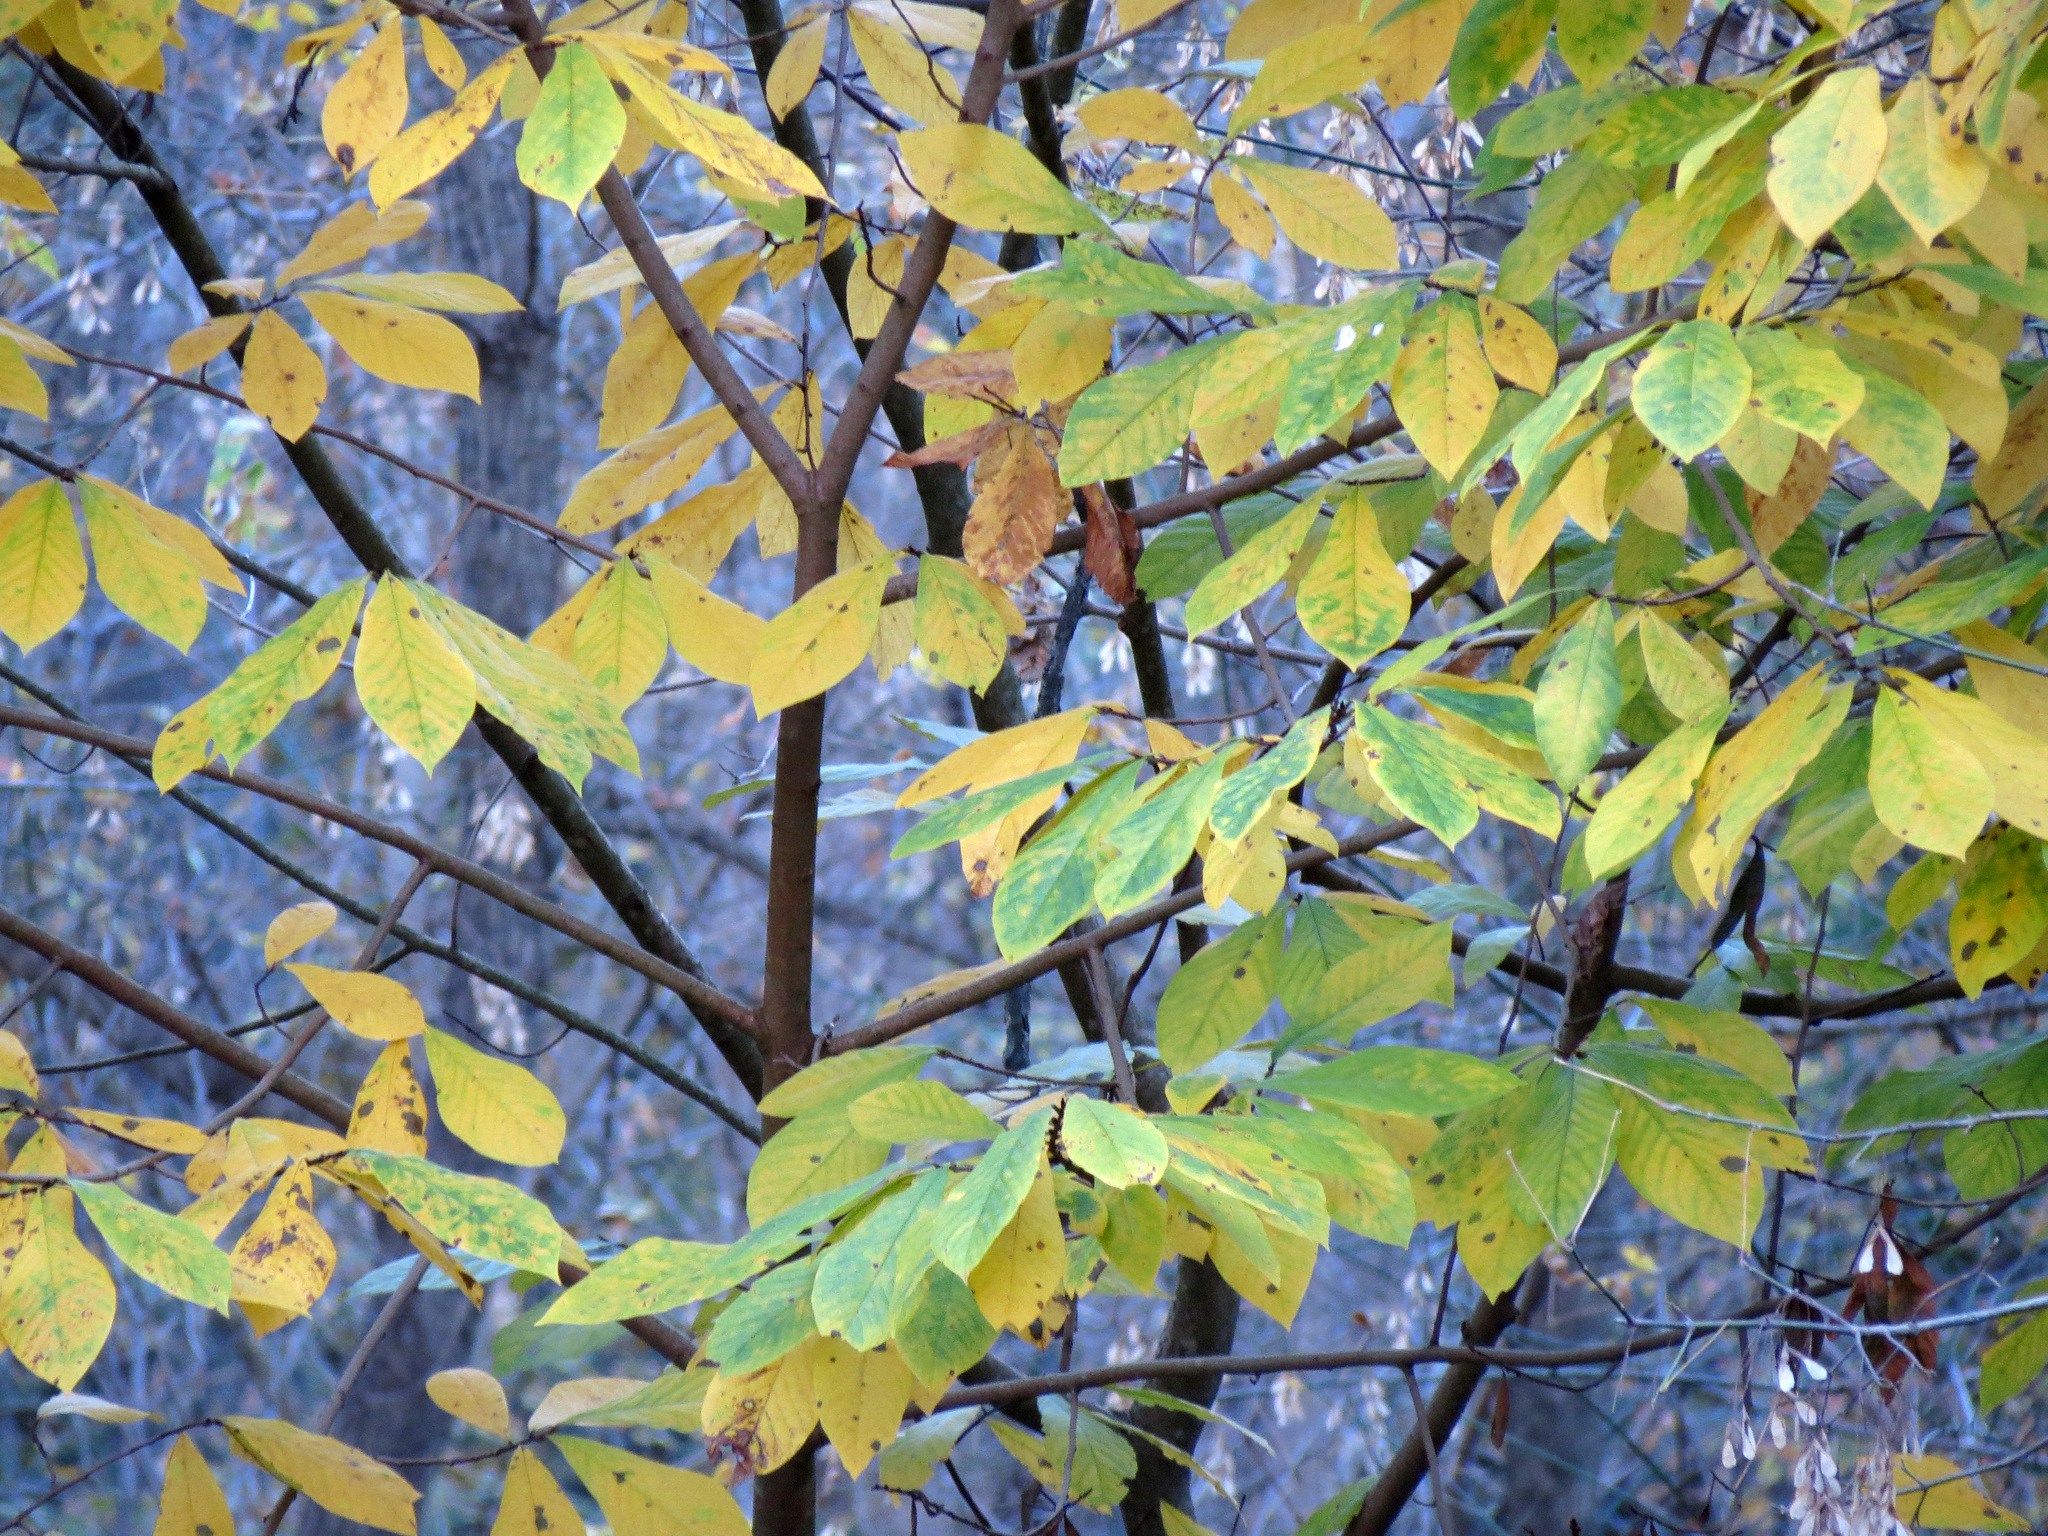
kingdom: Plantae
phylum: Tracheophyta
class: Magnoliopsida
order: Magnoliales
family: Annonaceae
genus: Asimina
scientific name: Asimina triloba
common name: Dog-banana
